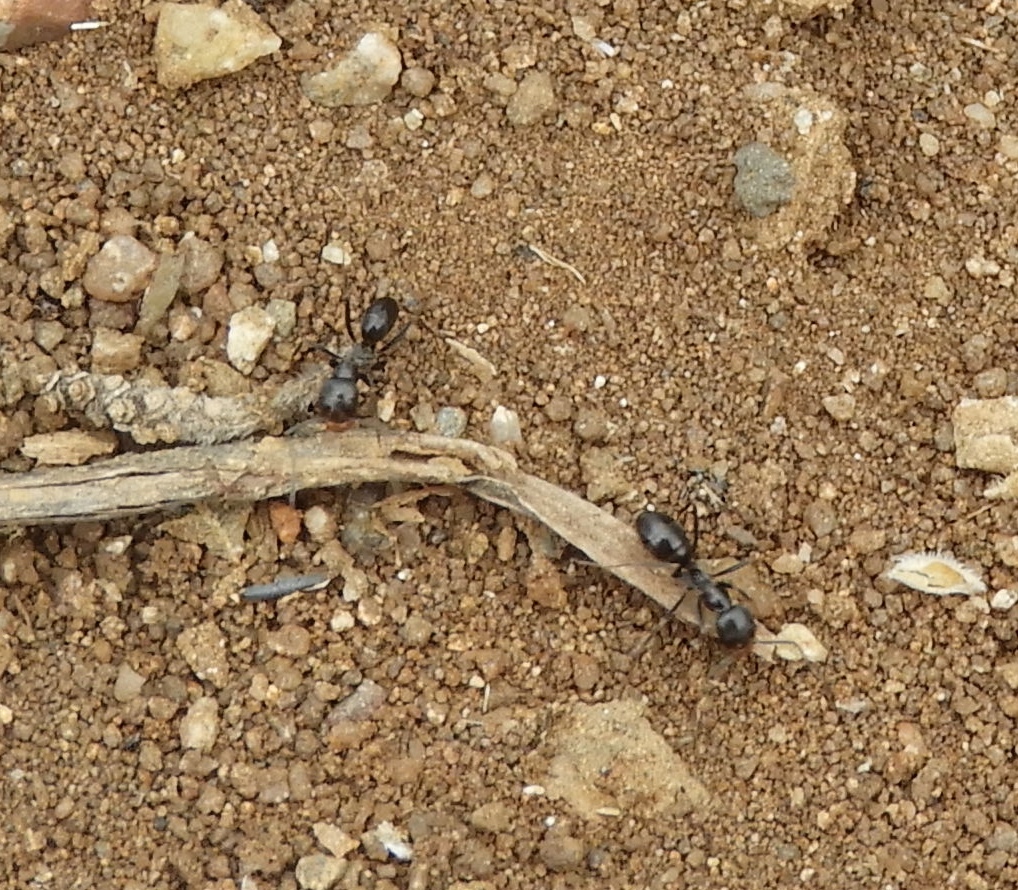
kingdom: Animalia
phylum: Arthropoda
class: Insecta
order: Hymenoptera
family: Formicidae
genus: Dorymyrmex
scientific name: Dorymyrmex
